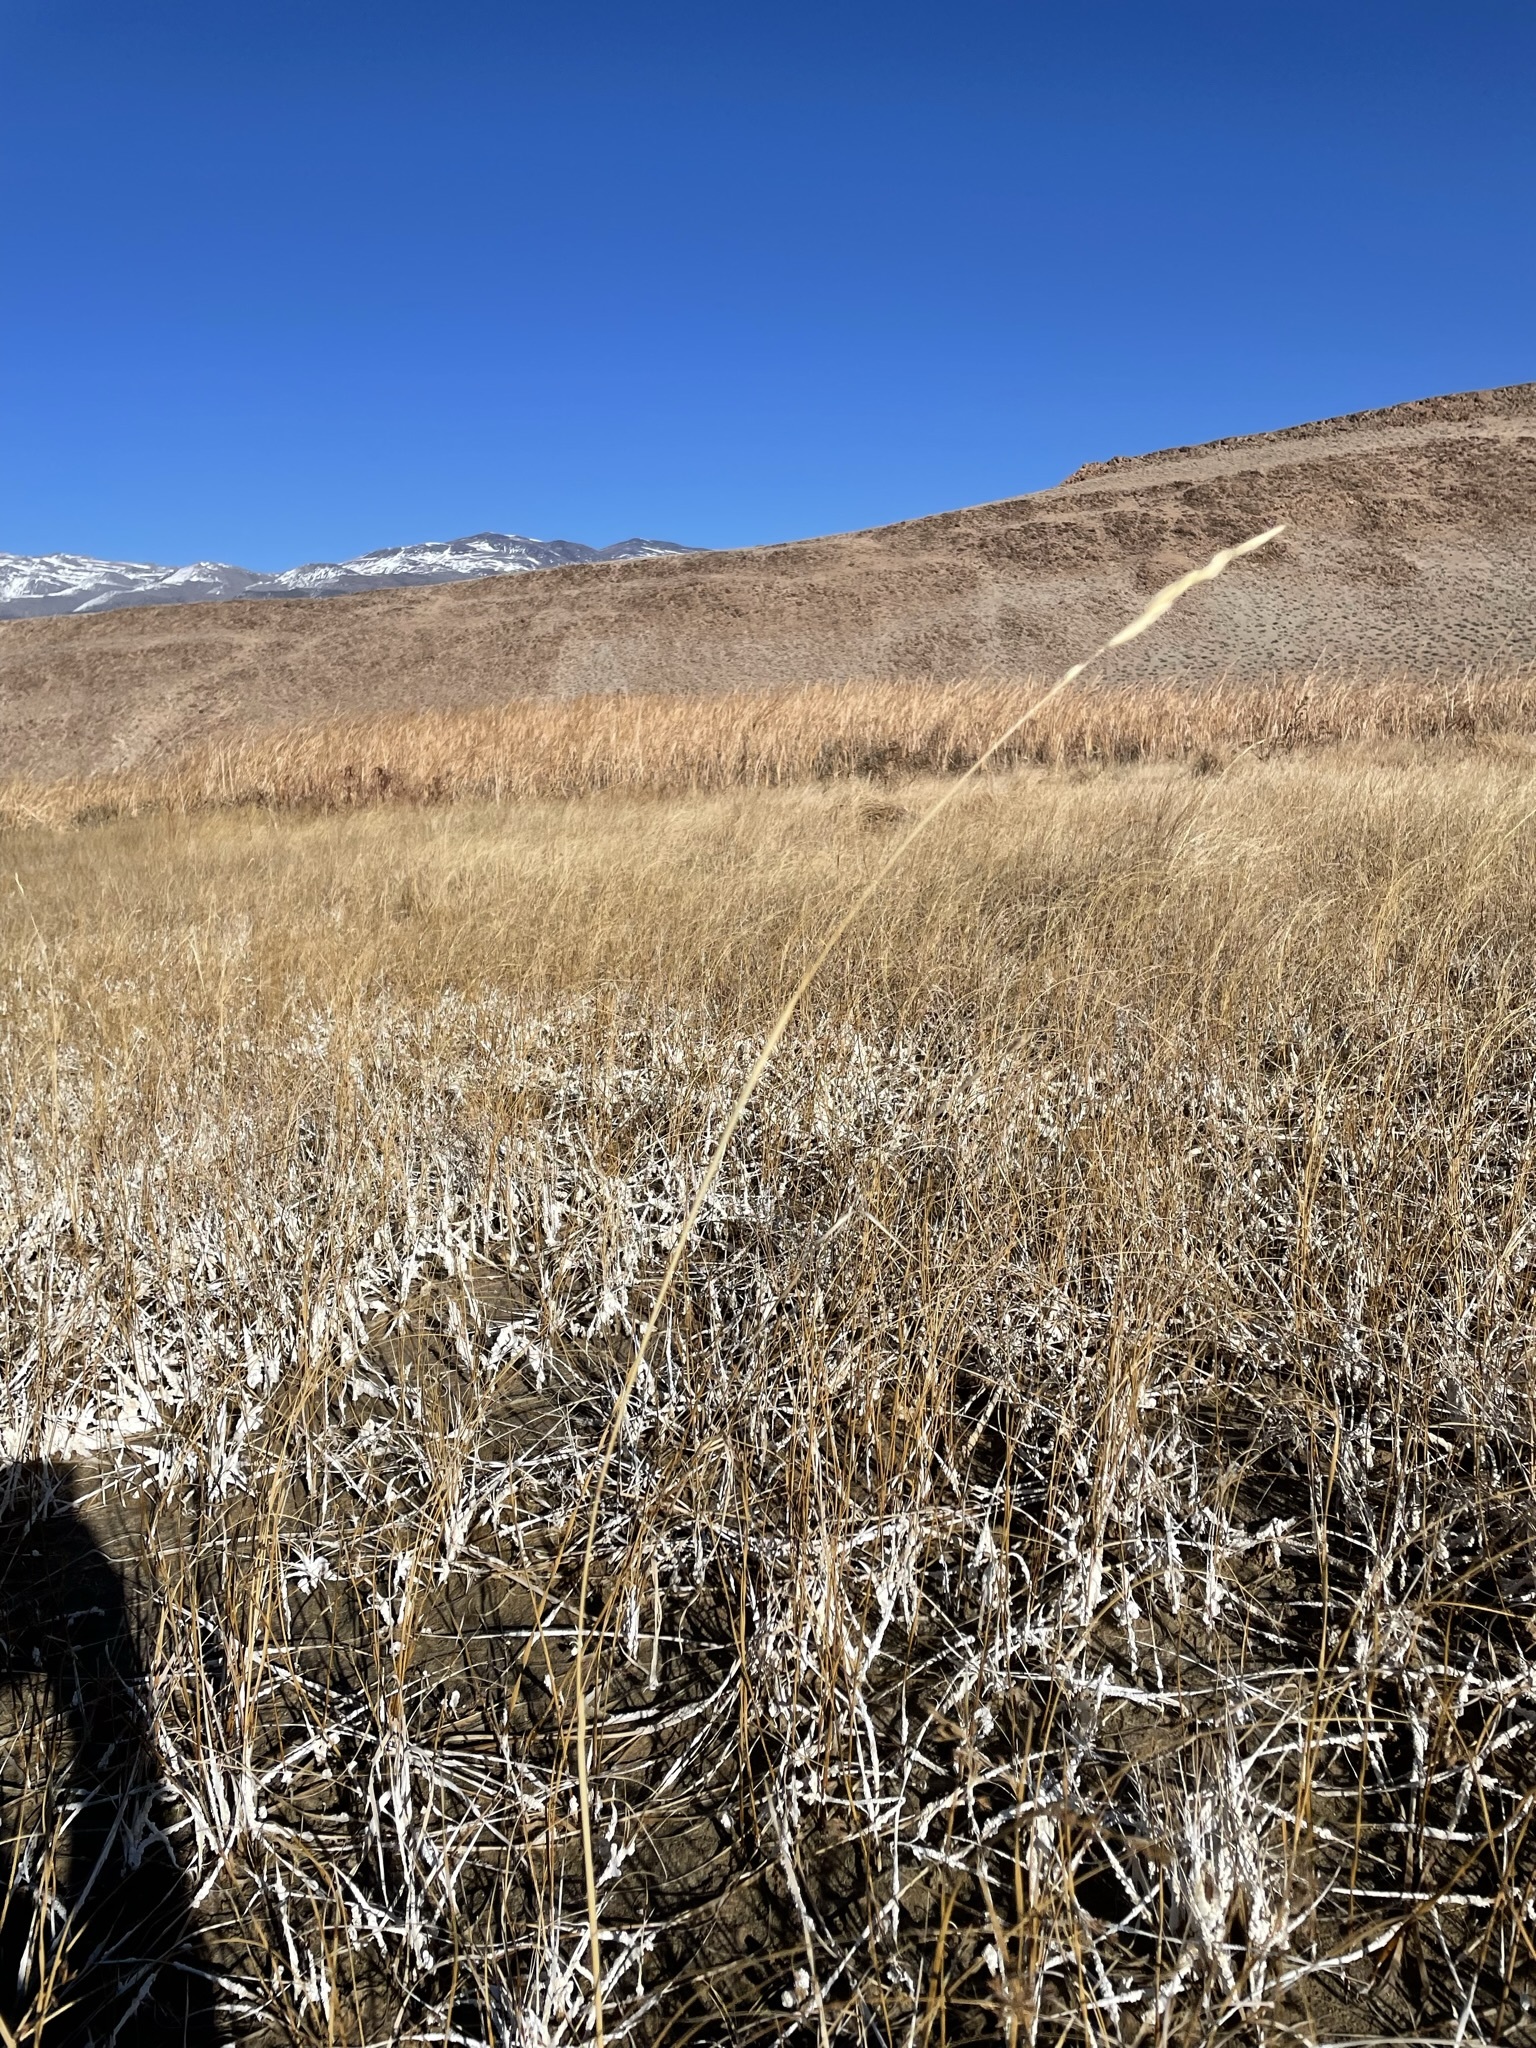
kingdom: Plantae
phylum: Tracheophyta
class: Liliopsida
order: Poales
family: Poaceae
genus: Sporobolus
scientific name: Sporobolus hookerianus
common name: Alkali cordgrass
